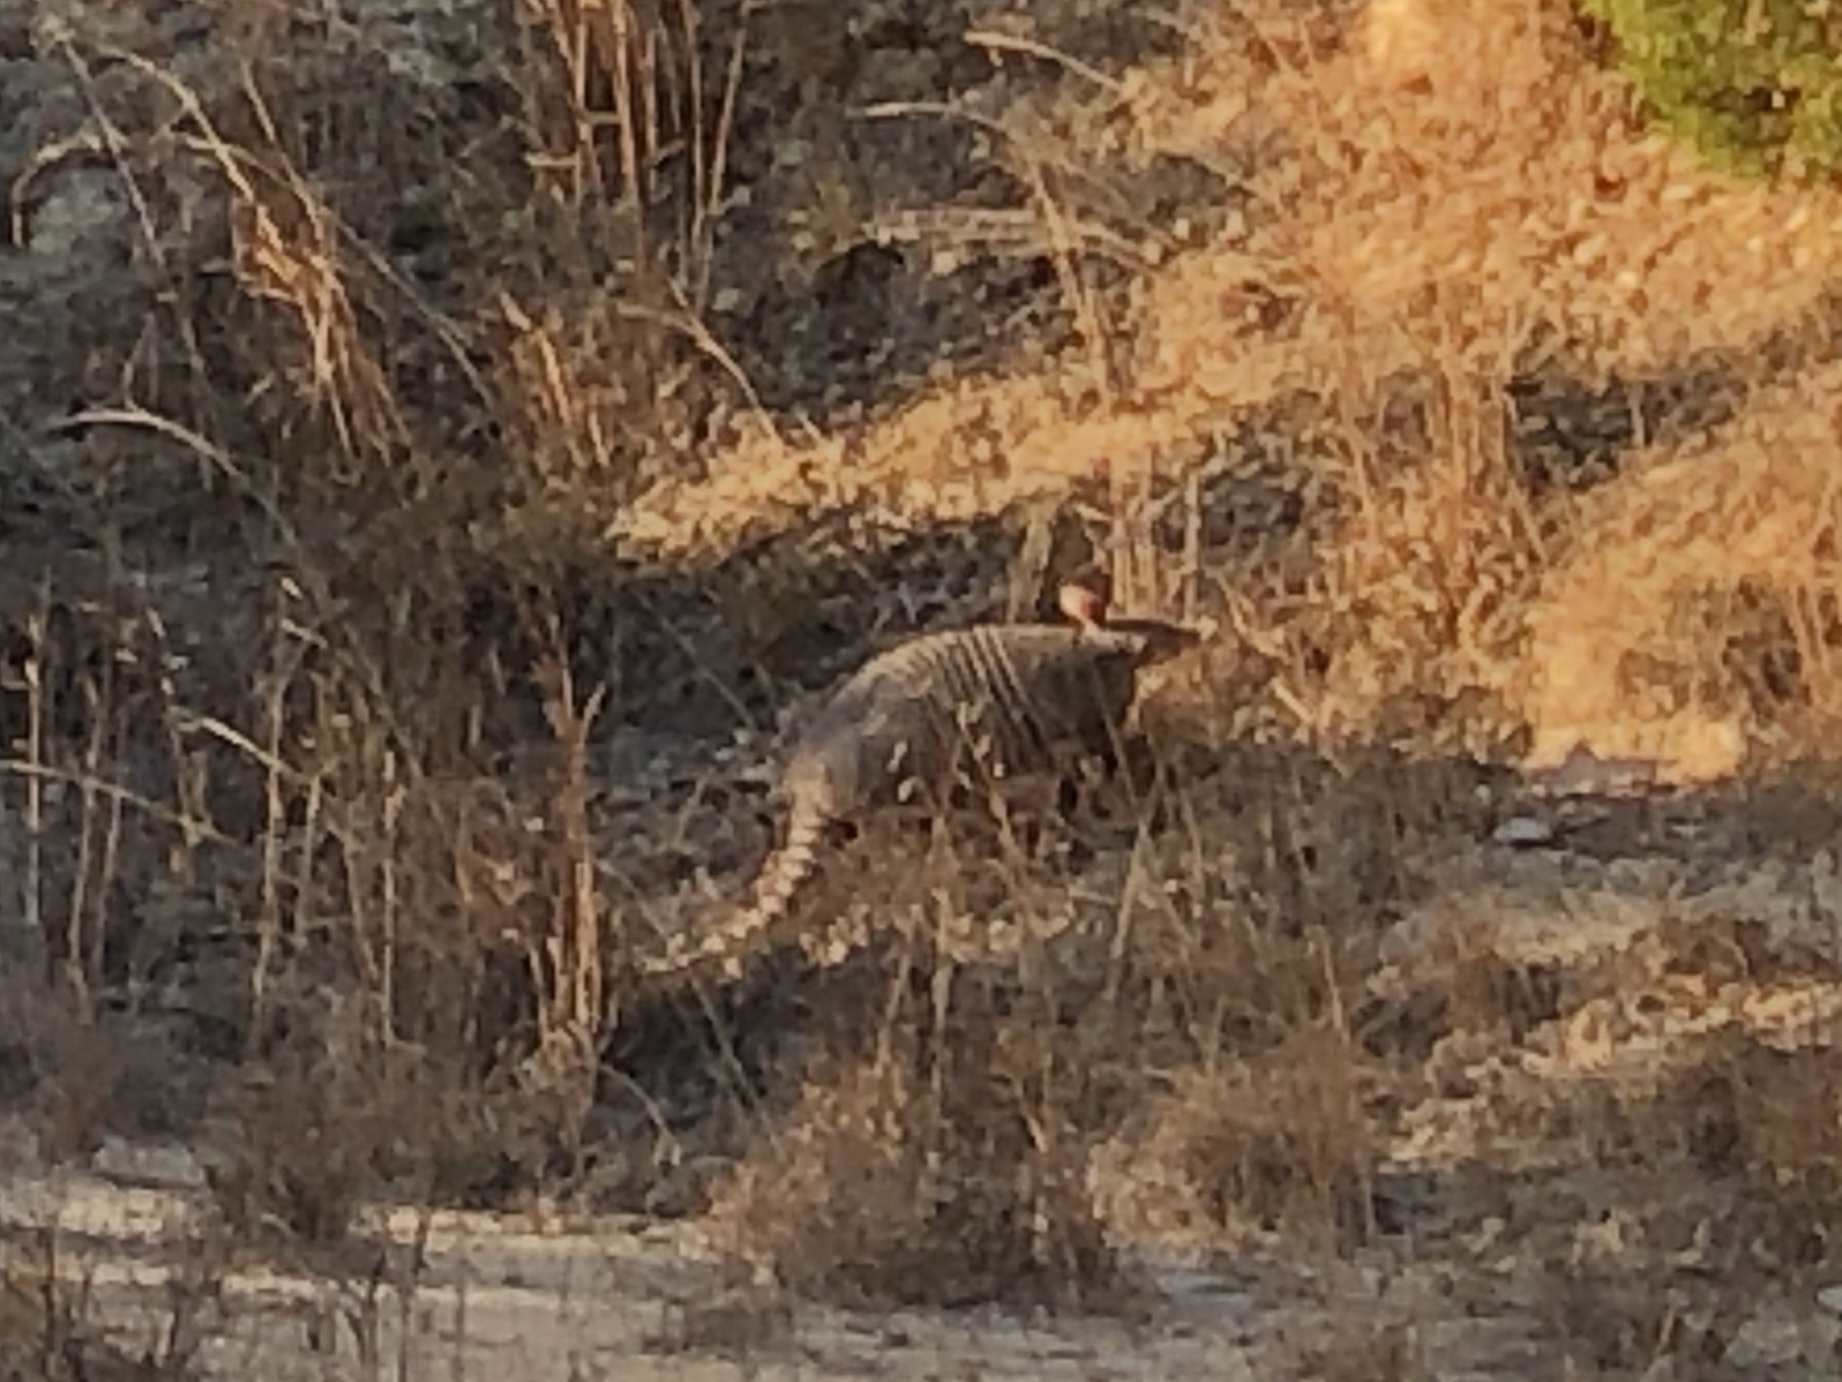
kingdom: Animalia
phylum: Chordata
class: Mammalia
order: Cingulata
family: Dasypodidae
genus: Dasypus
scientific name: Dasypus novemcinctus
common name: Nine-banded armadillo
